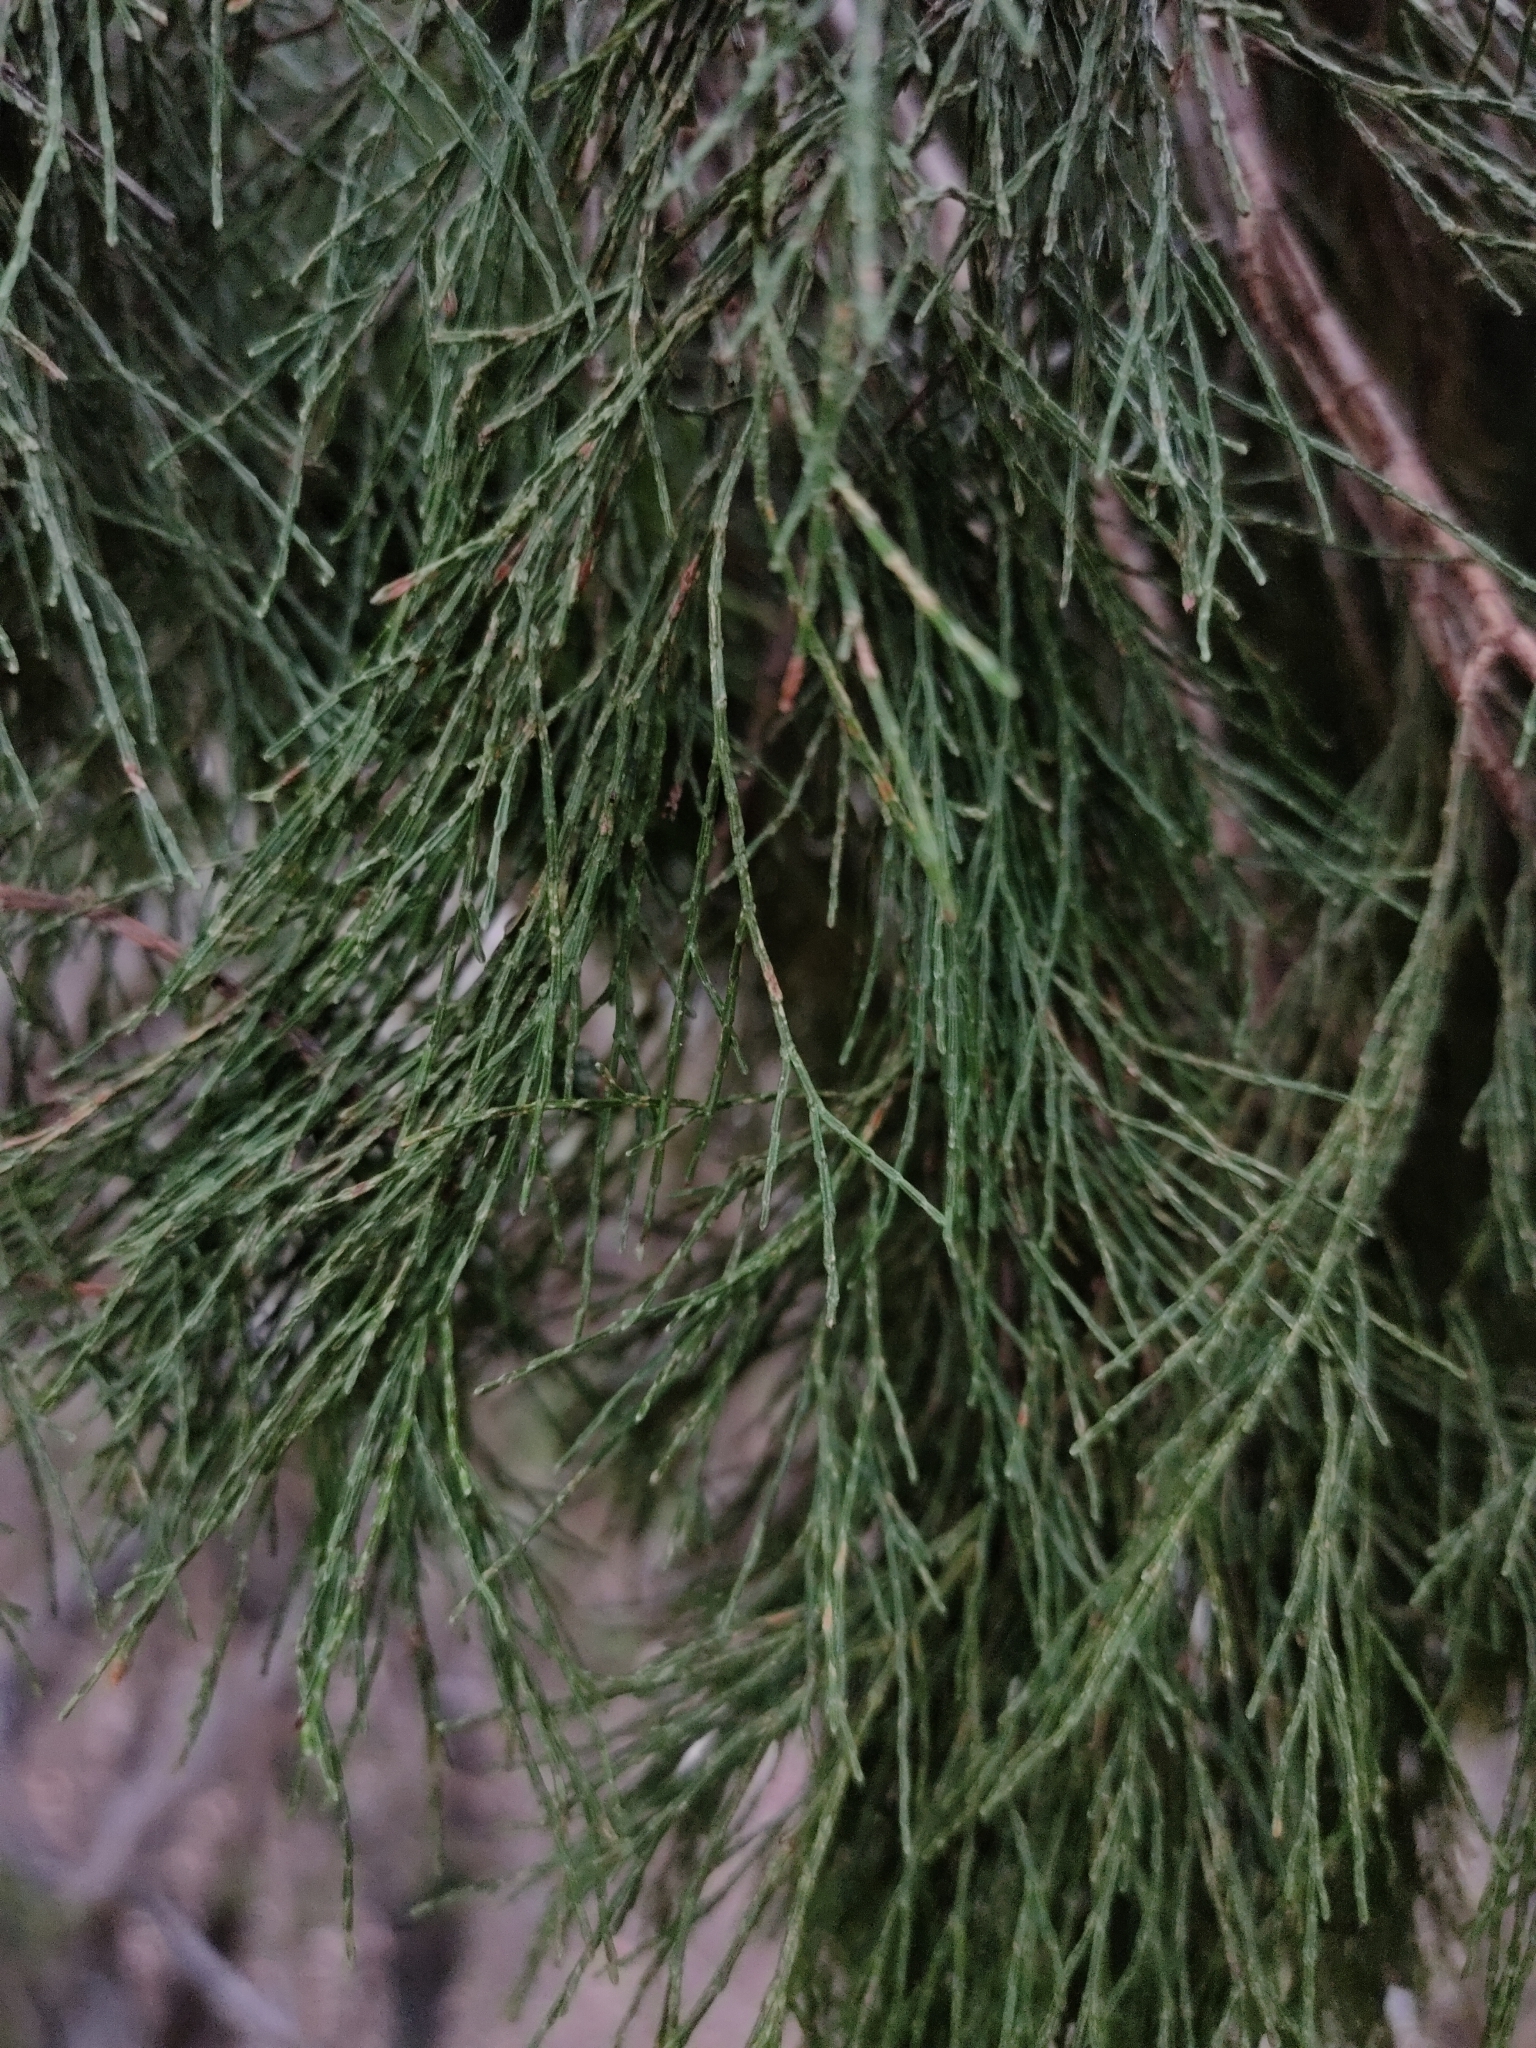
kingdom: Plantae
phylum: Tracheophyta
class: Pinopsida
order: Pinales
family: Cupressaceae
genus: Callitris
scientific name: Callitris endlicheri
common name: Black cypress-pine
